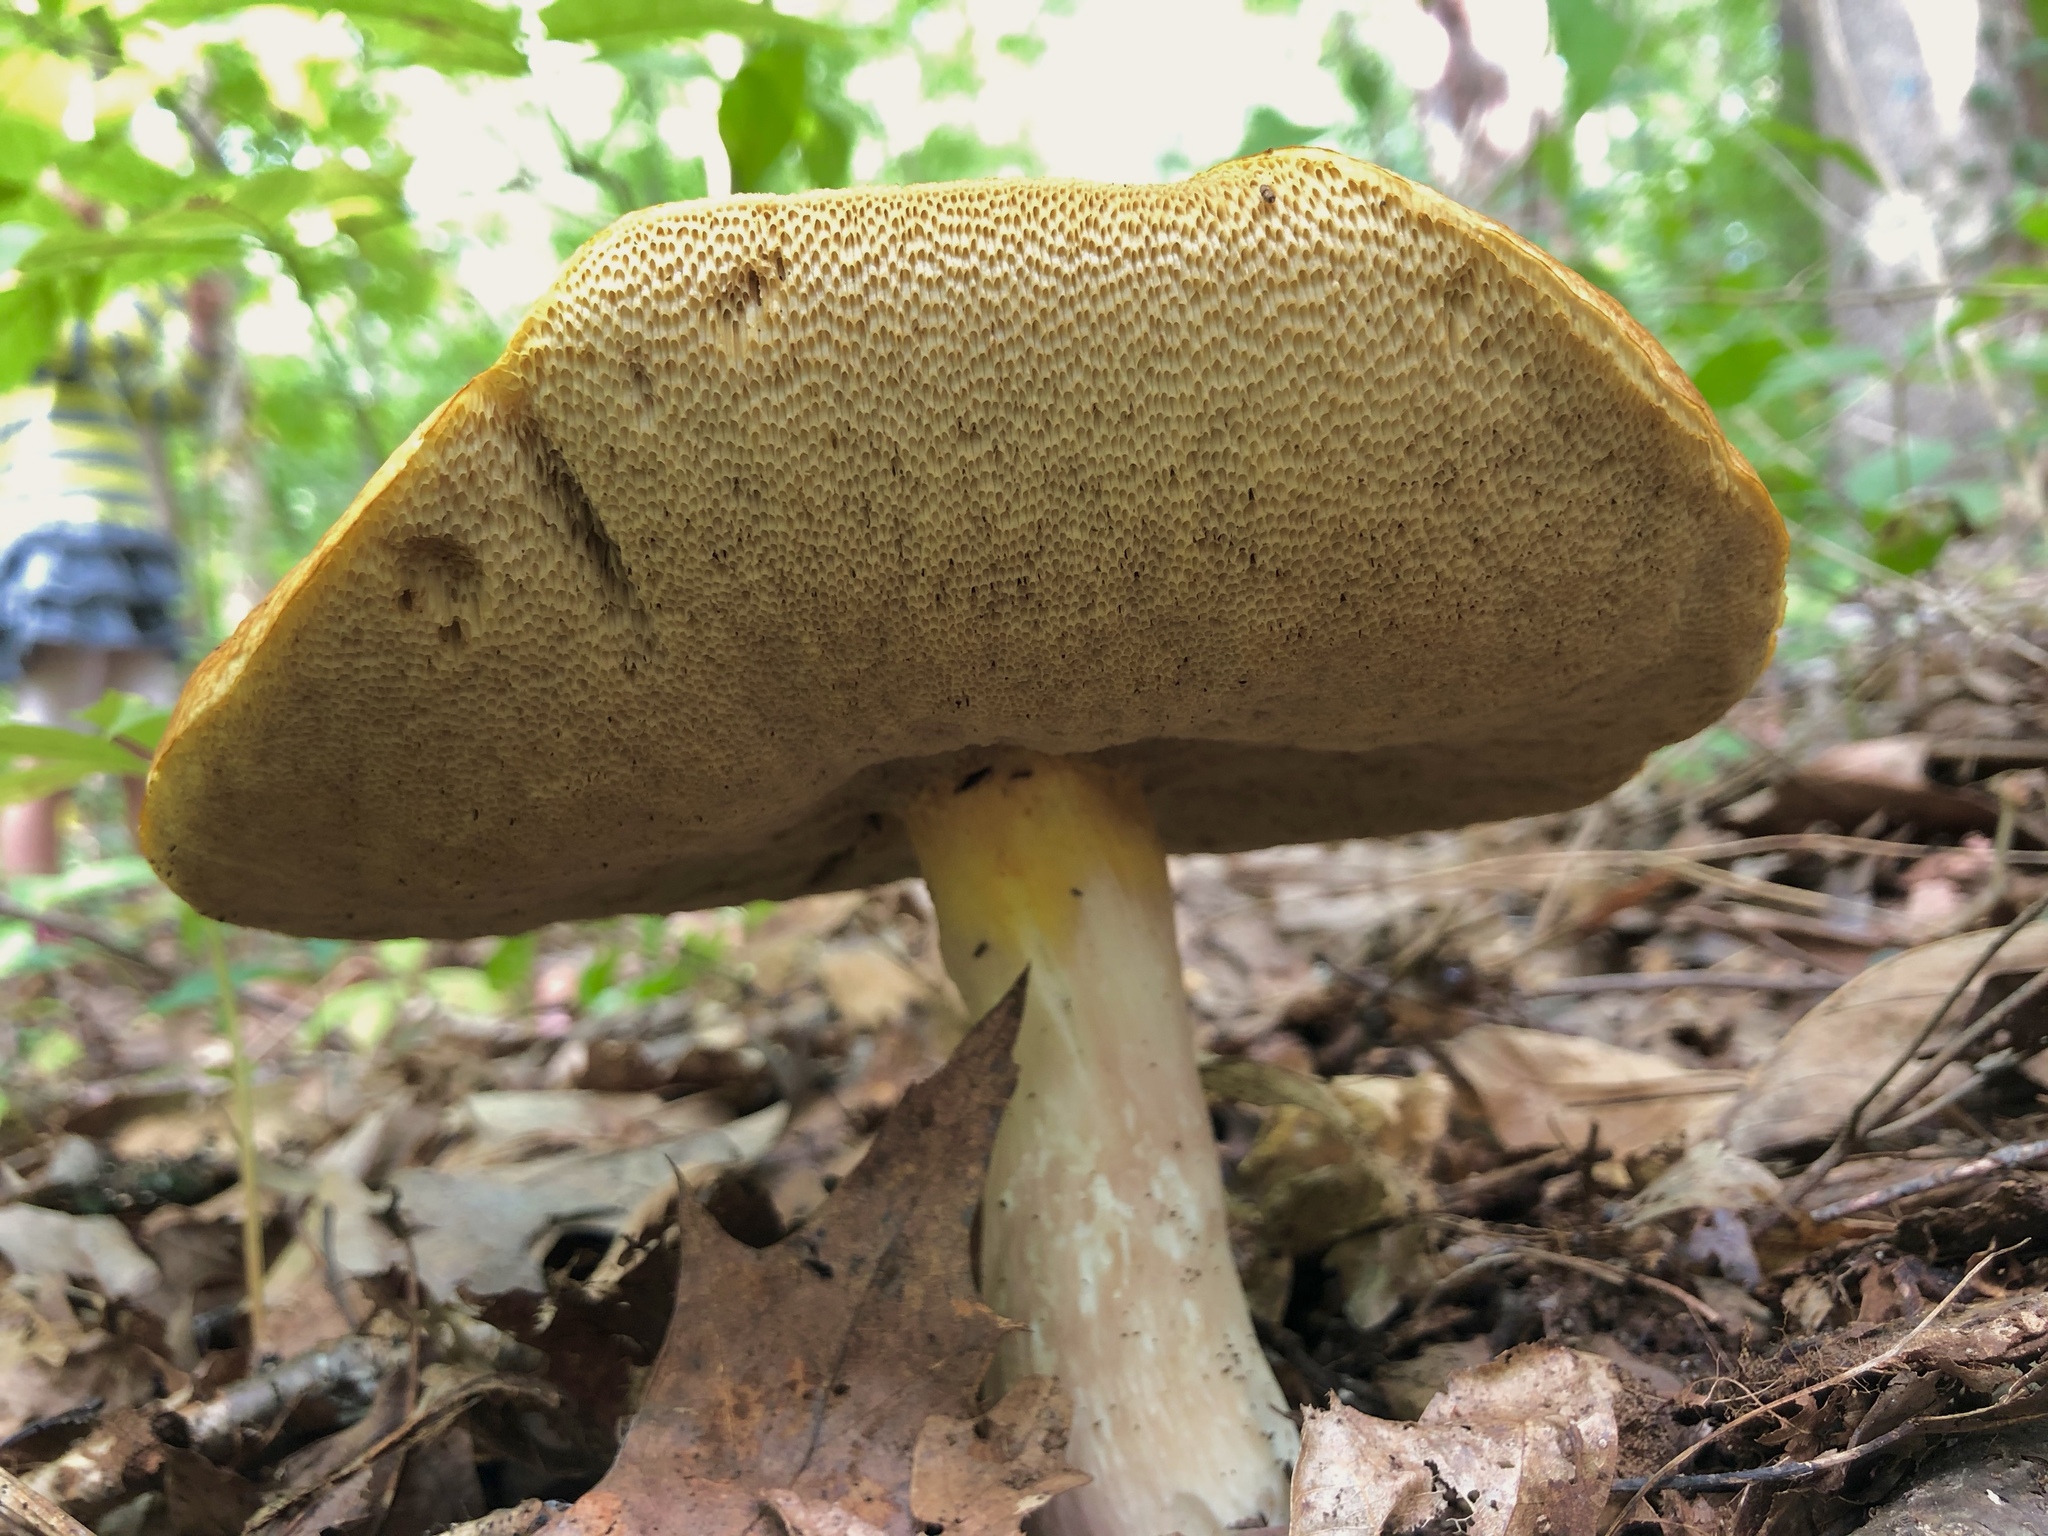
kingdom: Fungi
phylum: Basidiomycota
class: Agaricomycetes
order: Boletales
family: Boletaceae
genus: Boletus
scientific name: Boletus gertrudiae
